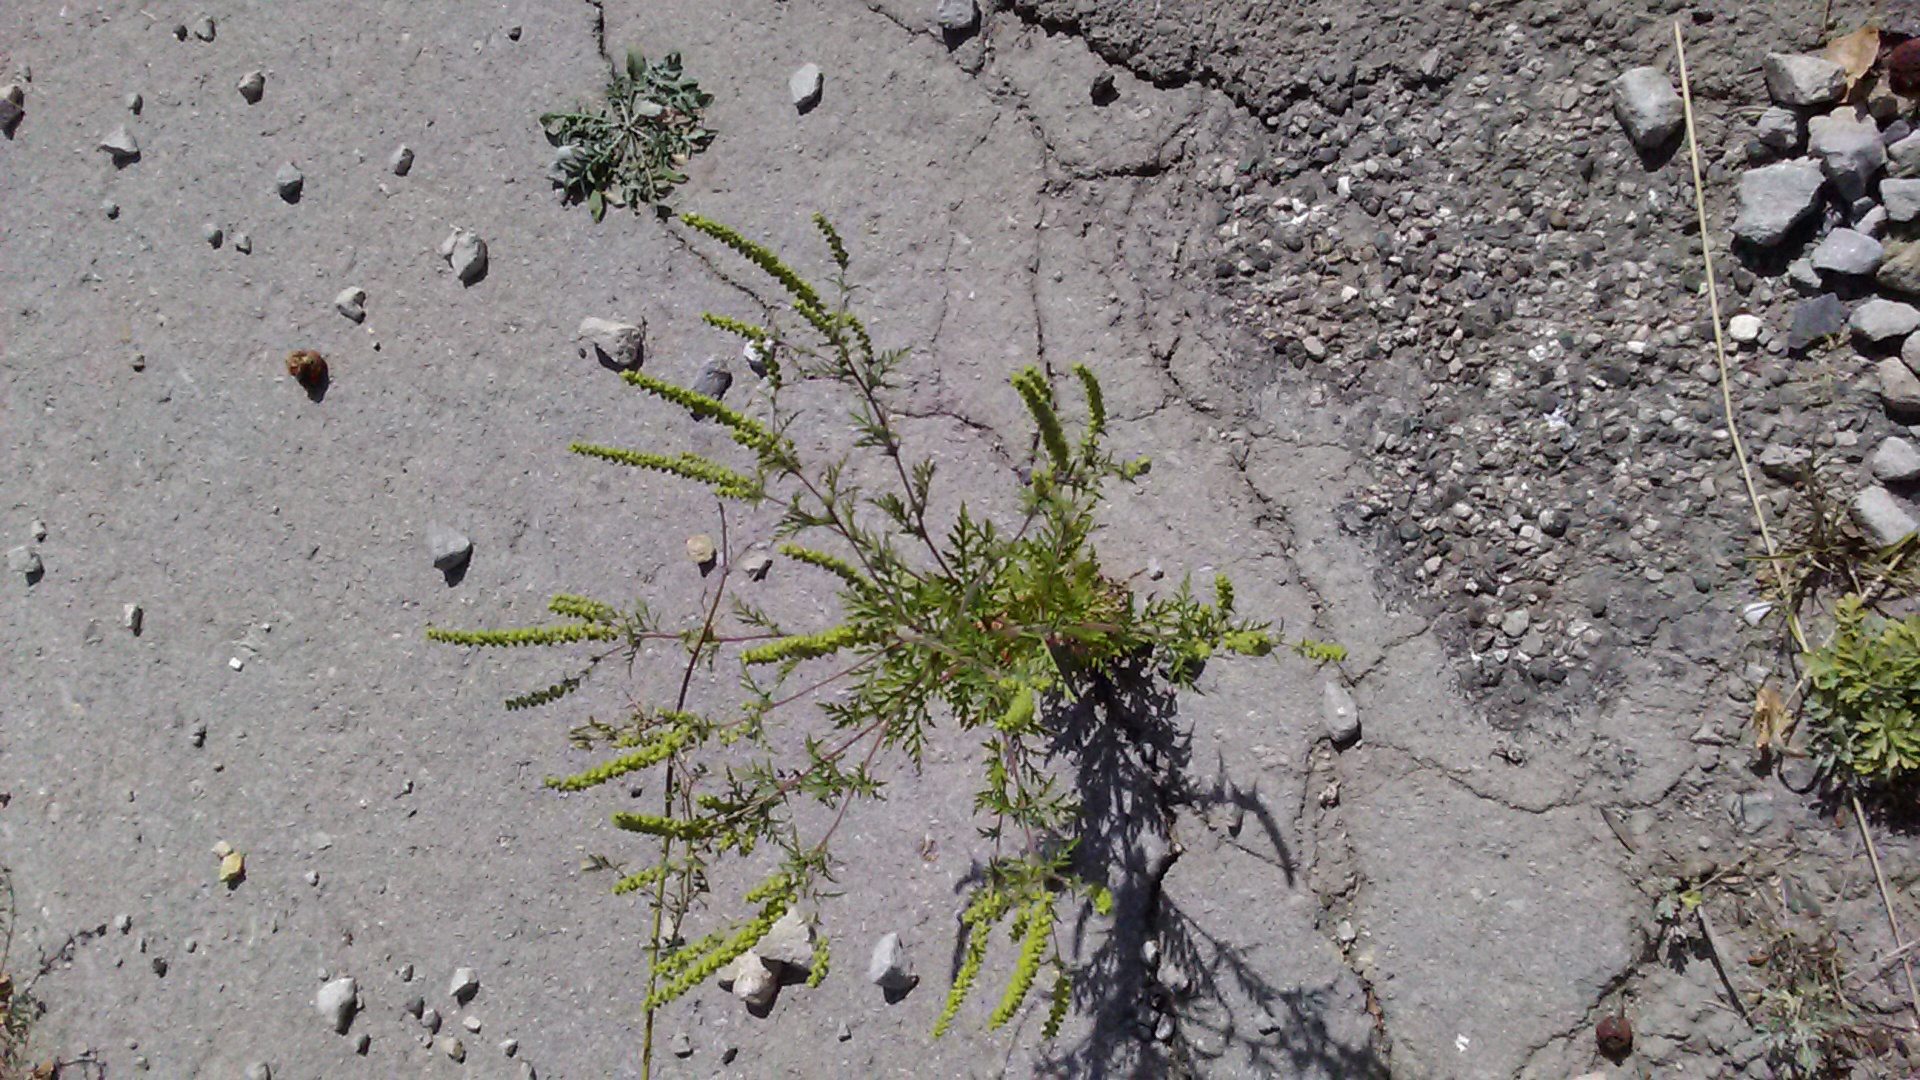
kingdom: Plantae
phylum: Tracheophyta
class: Magnoliopsida
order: Asterales
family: Asteraceae
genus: Ambrosia
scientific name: Ambrosia artemisiifolia
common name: Annual ragweed
